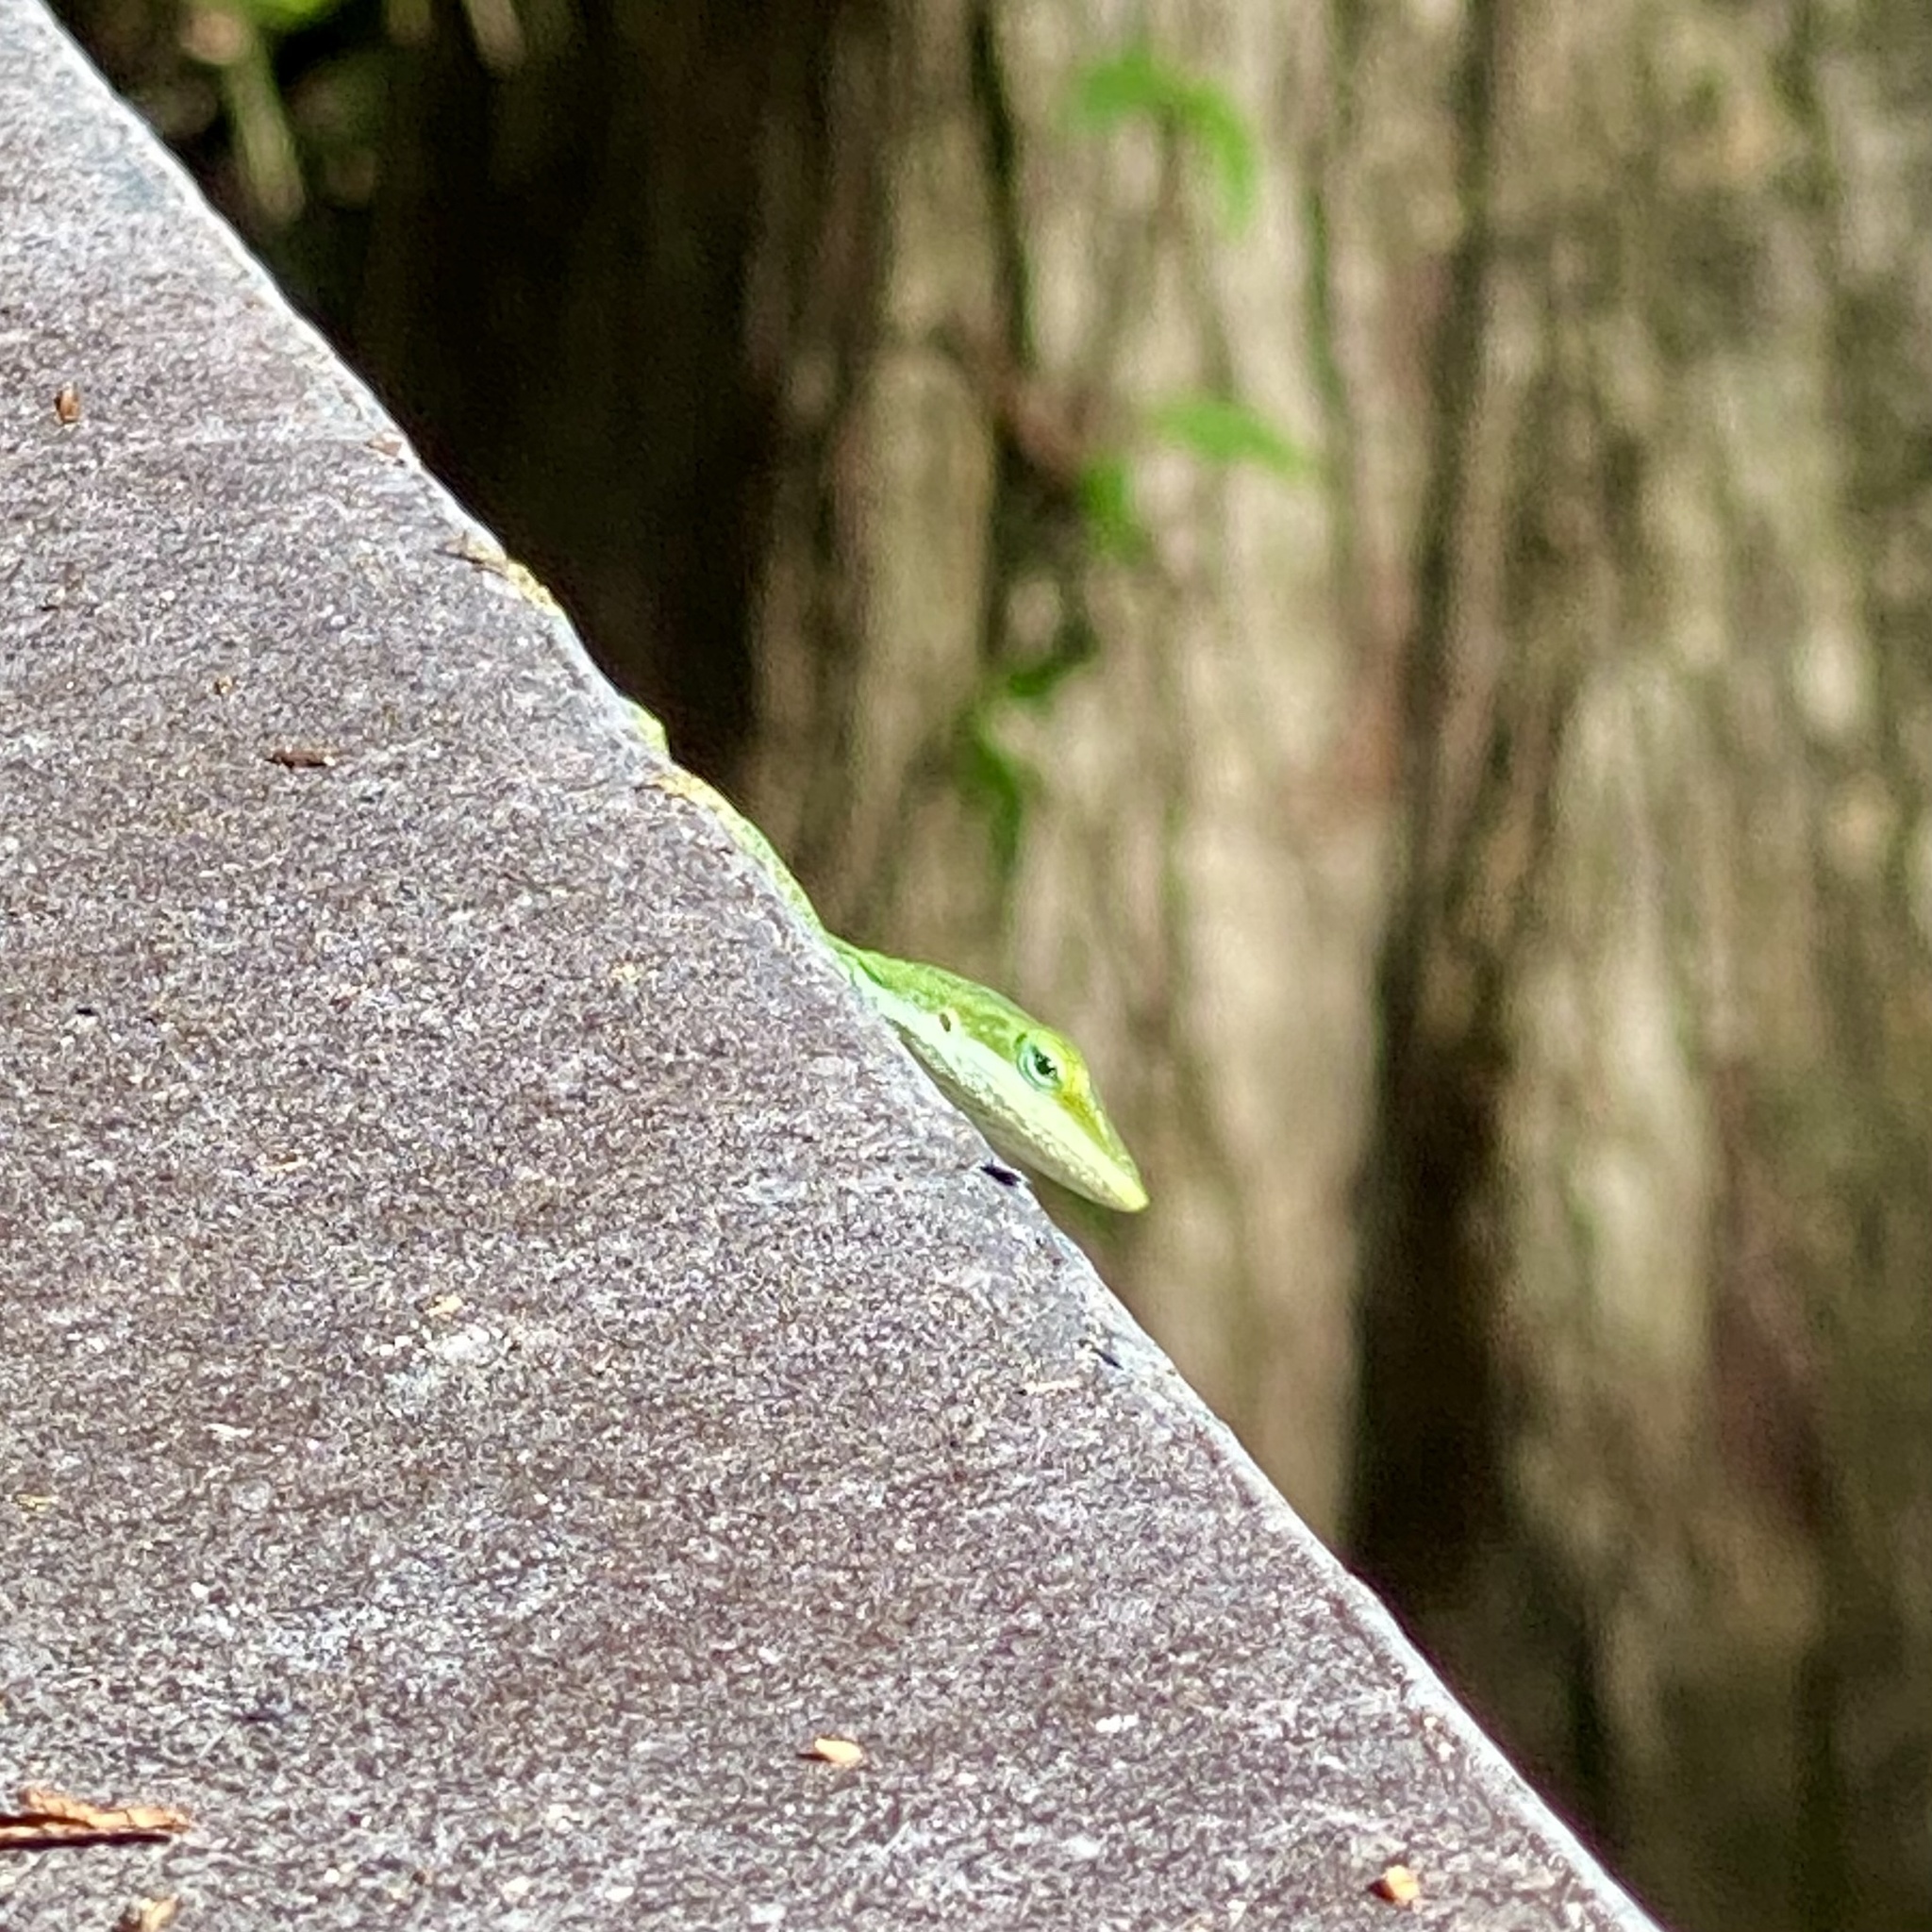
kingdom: Animalia
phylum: Chordata
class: Squamata
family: Dactyloidae
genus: Anolis
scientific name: Anolis carolinensis
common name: Green anole
